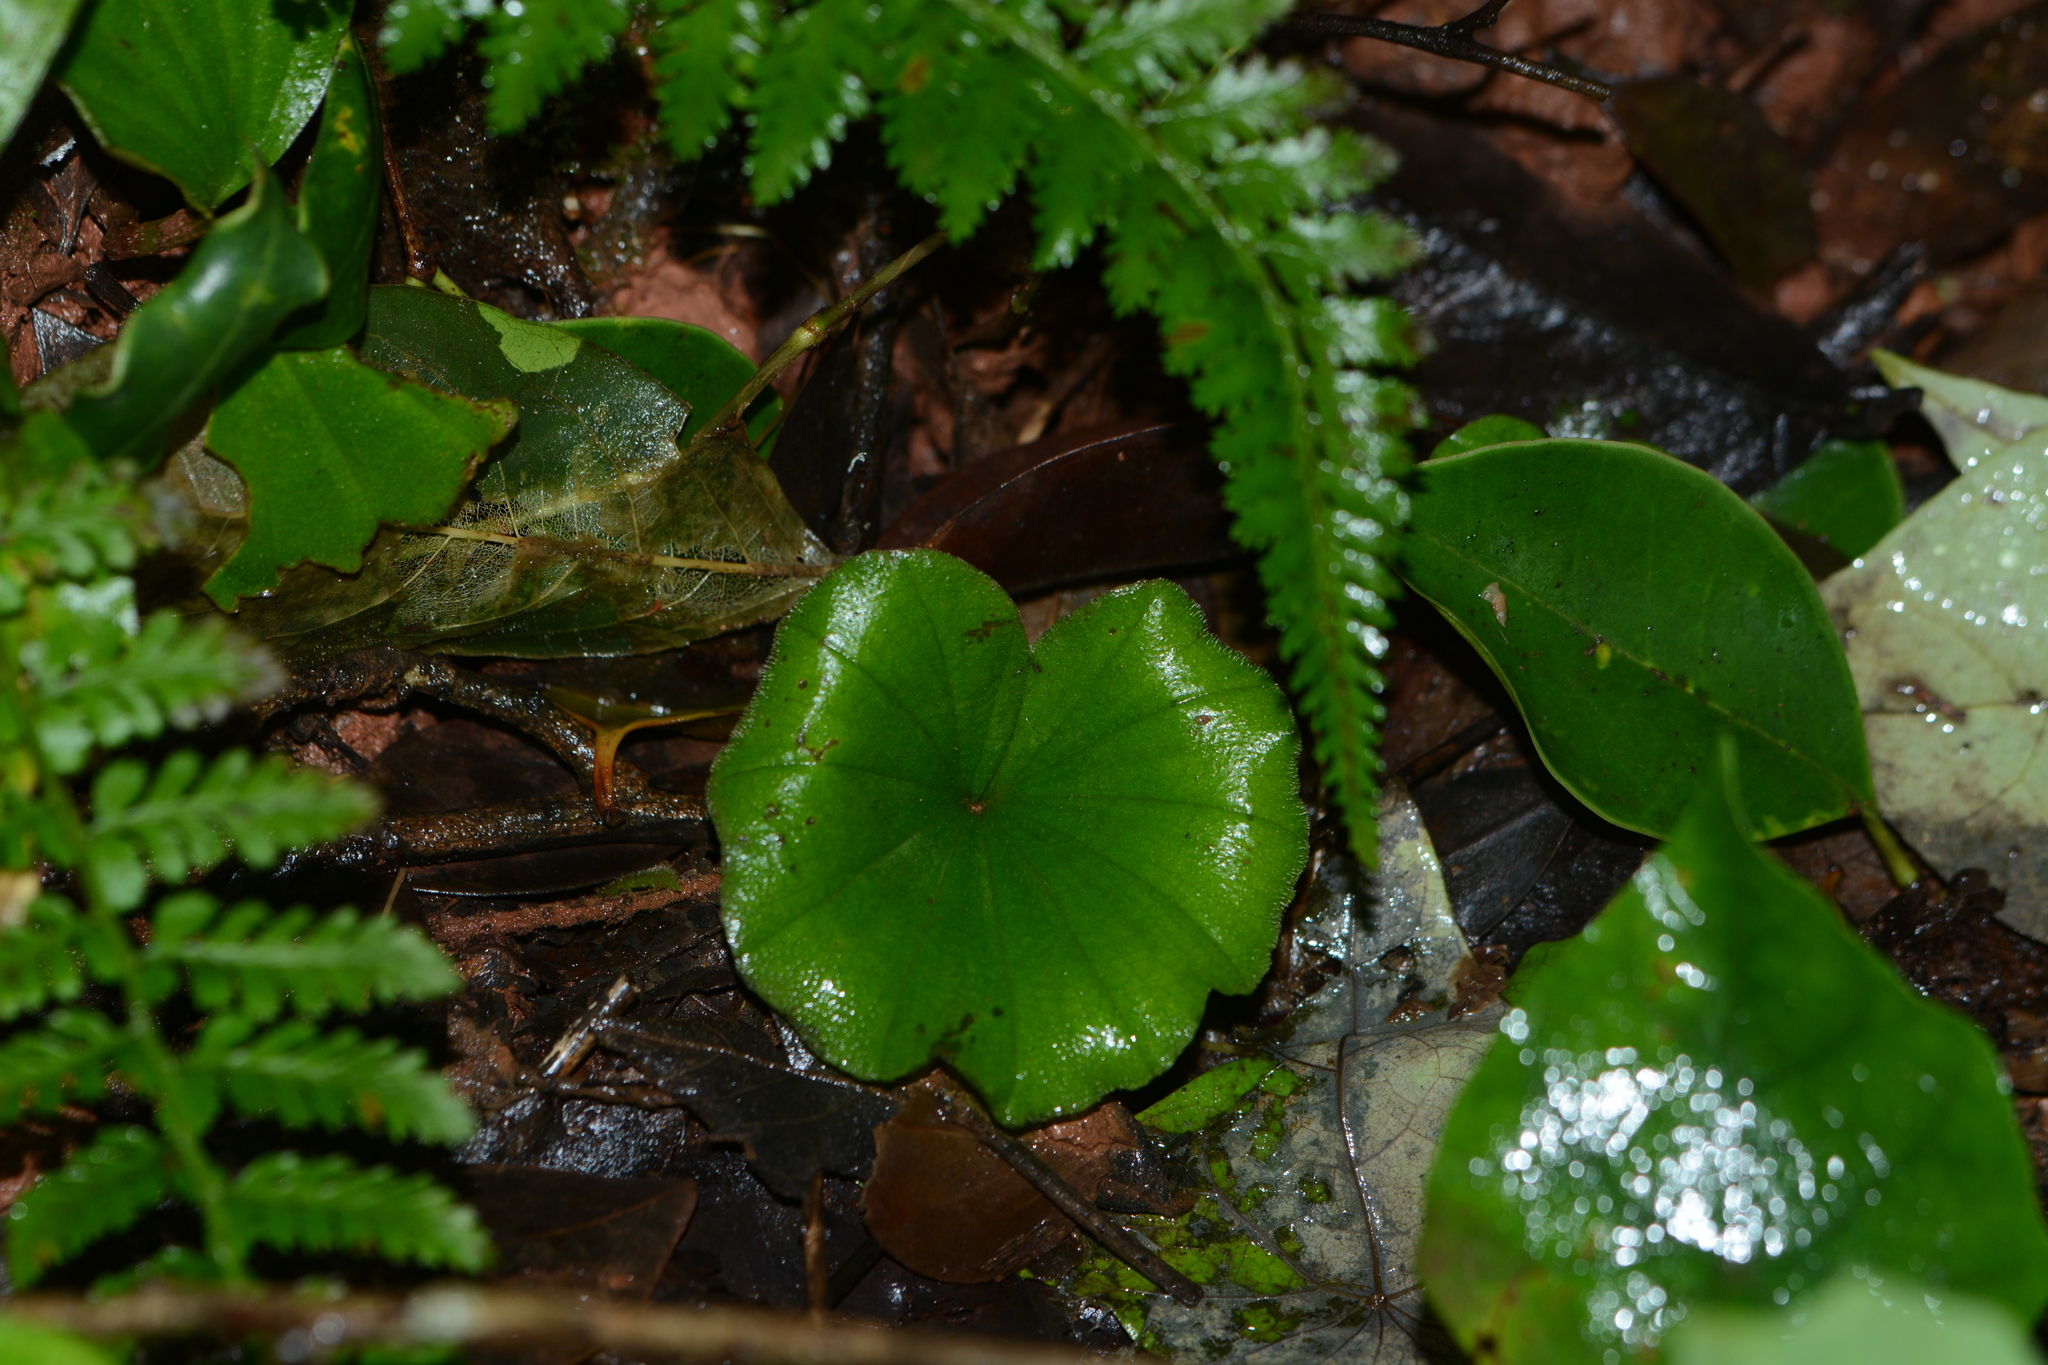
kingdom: Plantae
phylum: Tracheophyta
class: Liliopsida
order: Asparagales
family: Orchidaceae
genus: Nervilia
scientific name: Nervilia simplex
